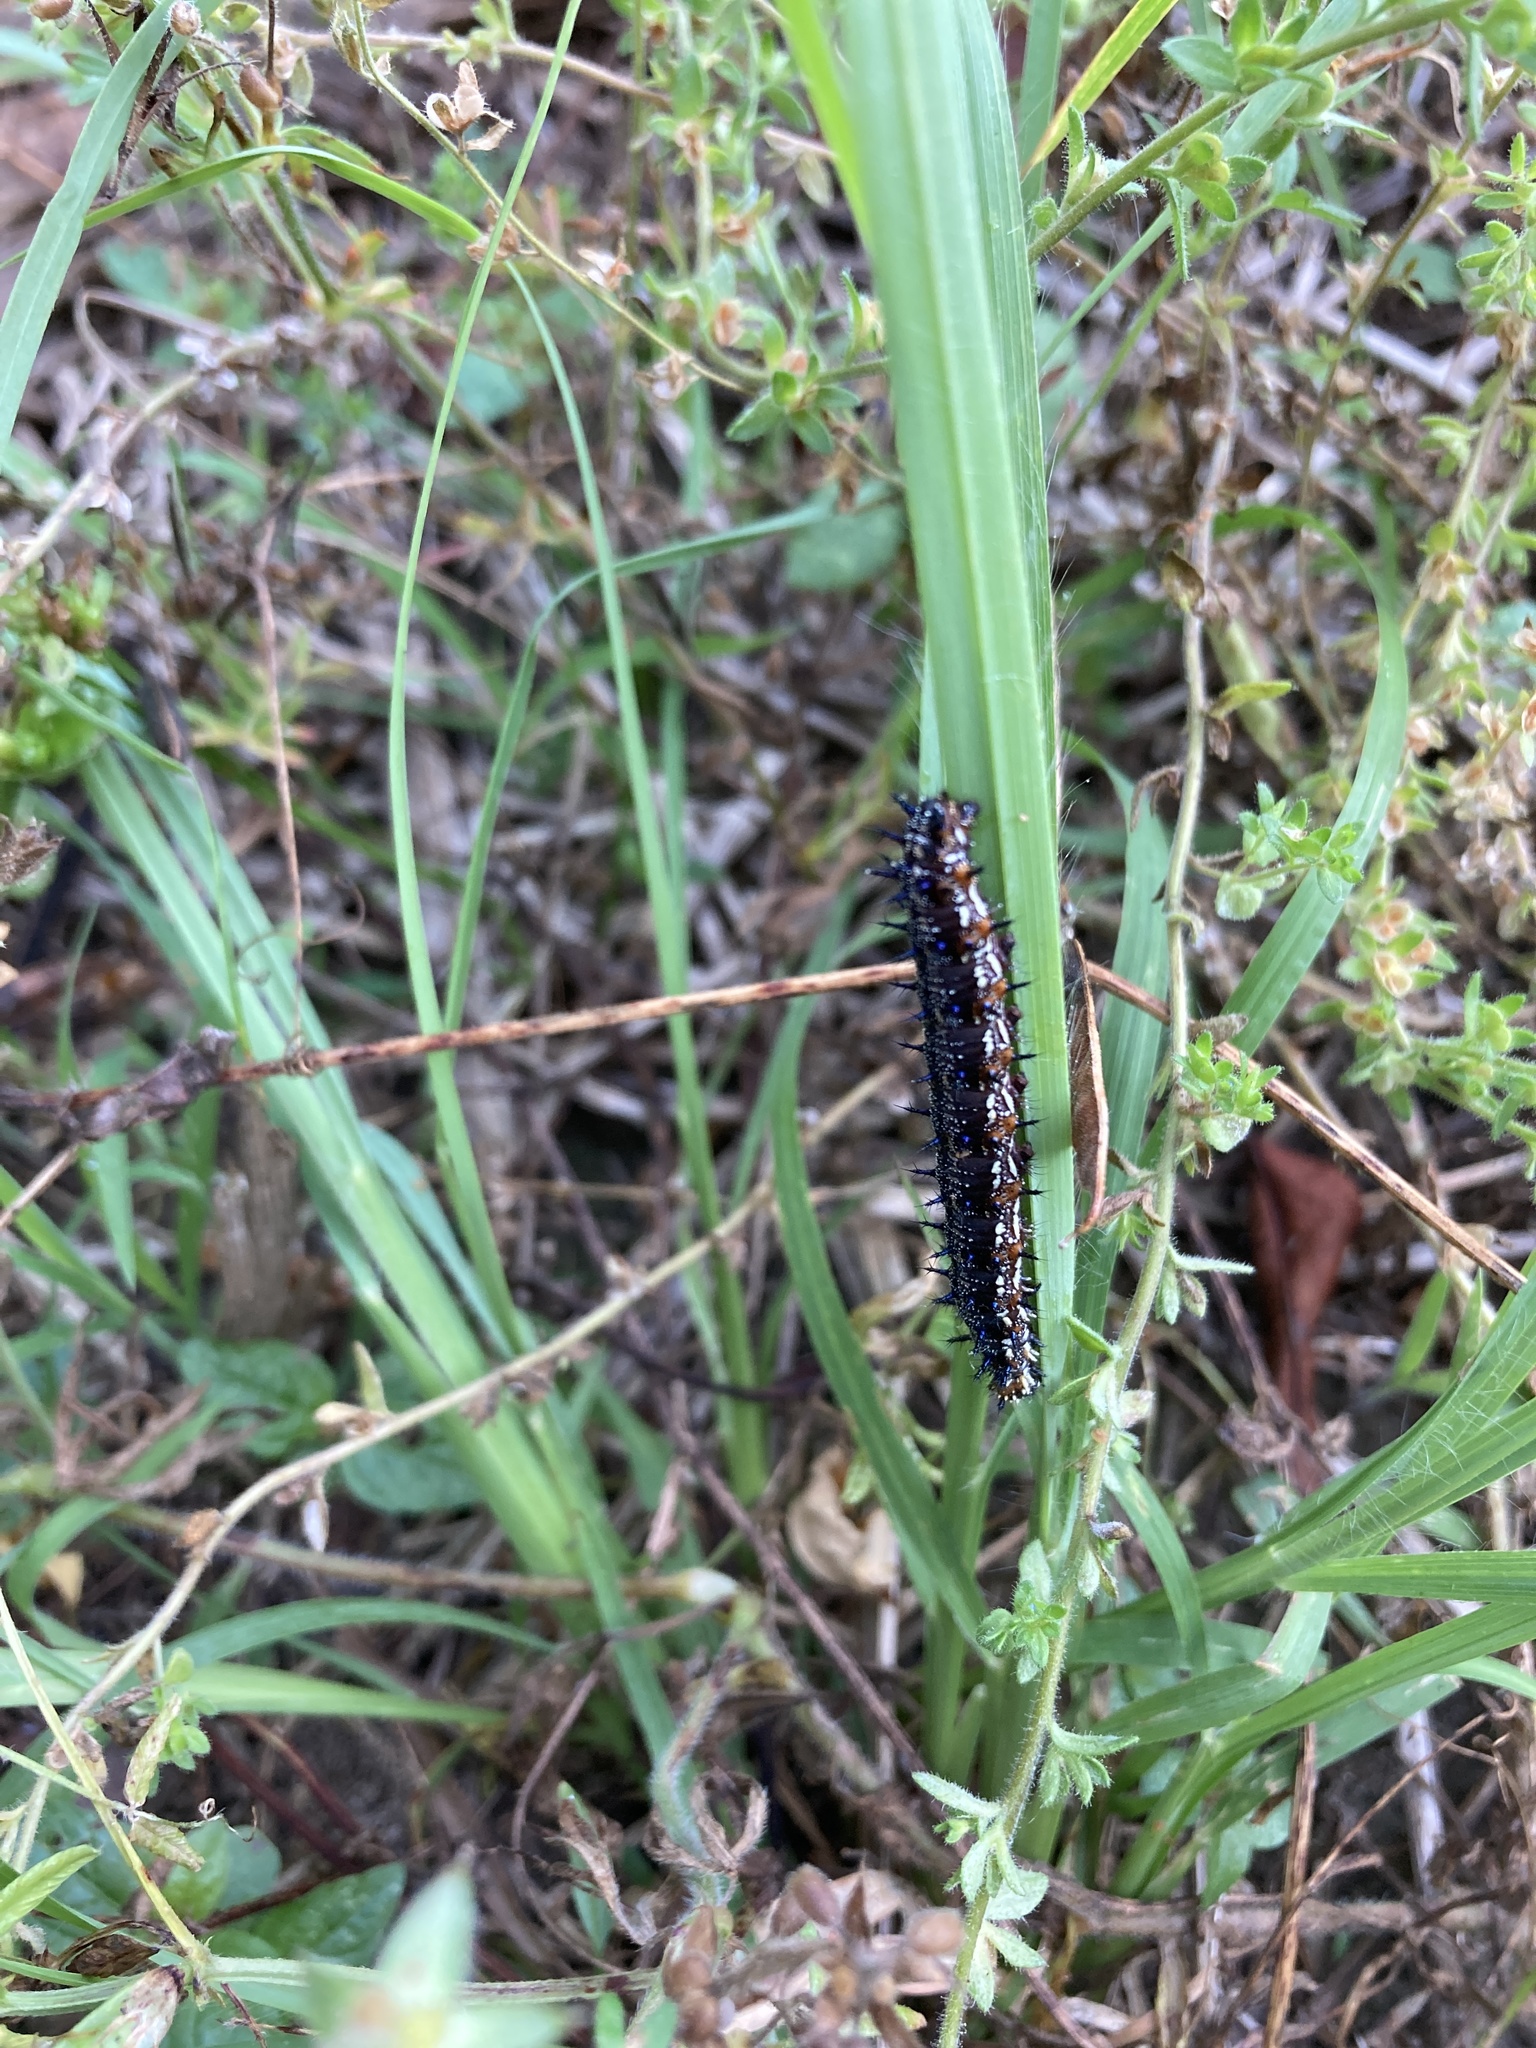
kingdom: Animalia
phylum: Arthropoda
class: Insecta
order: Lepidoptera
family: Nymphalidae
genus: Junonia
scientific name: Junonia coenia
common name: Common buckeye
